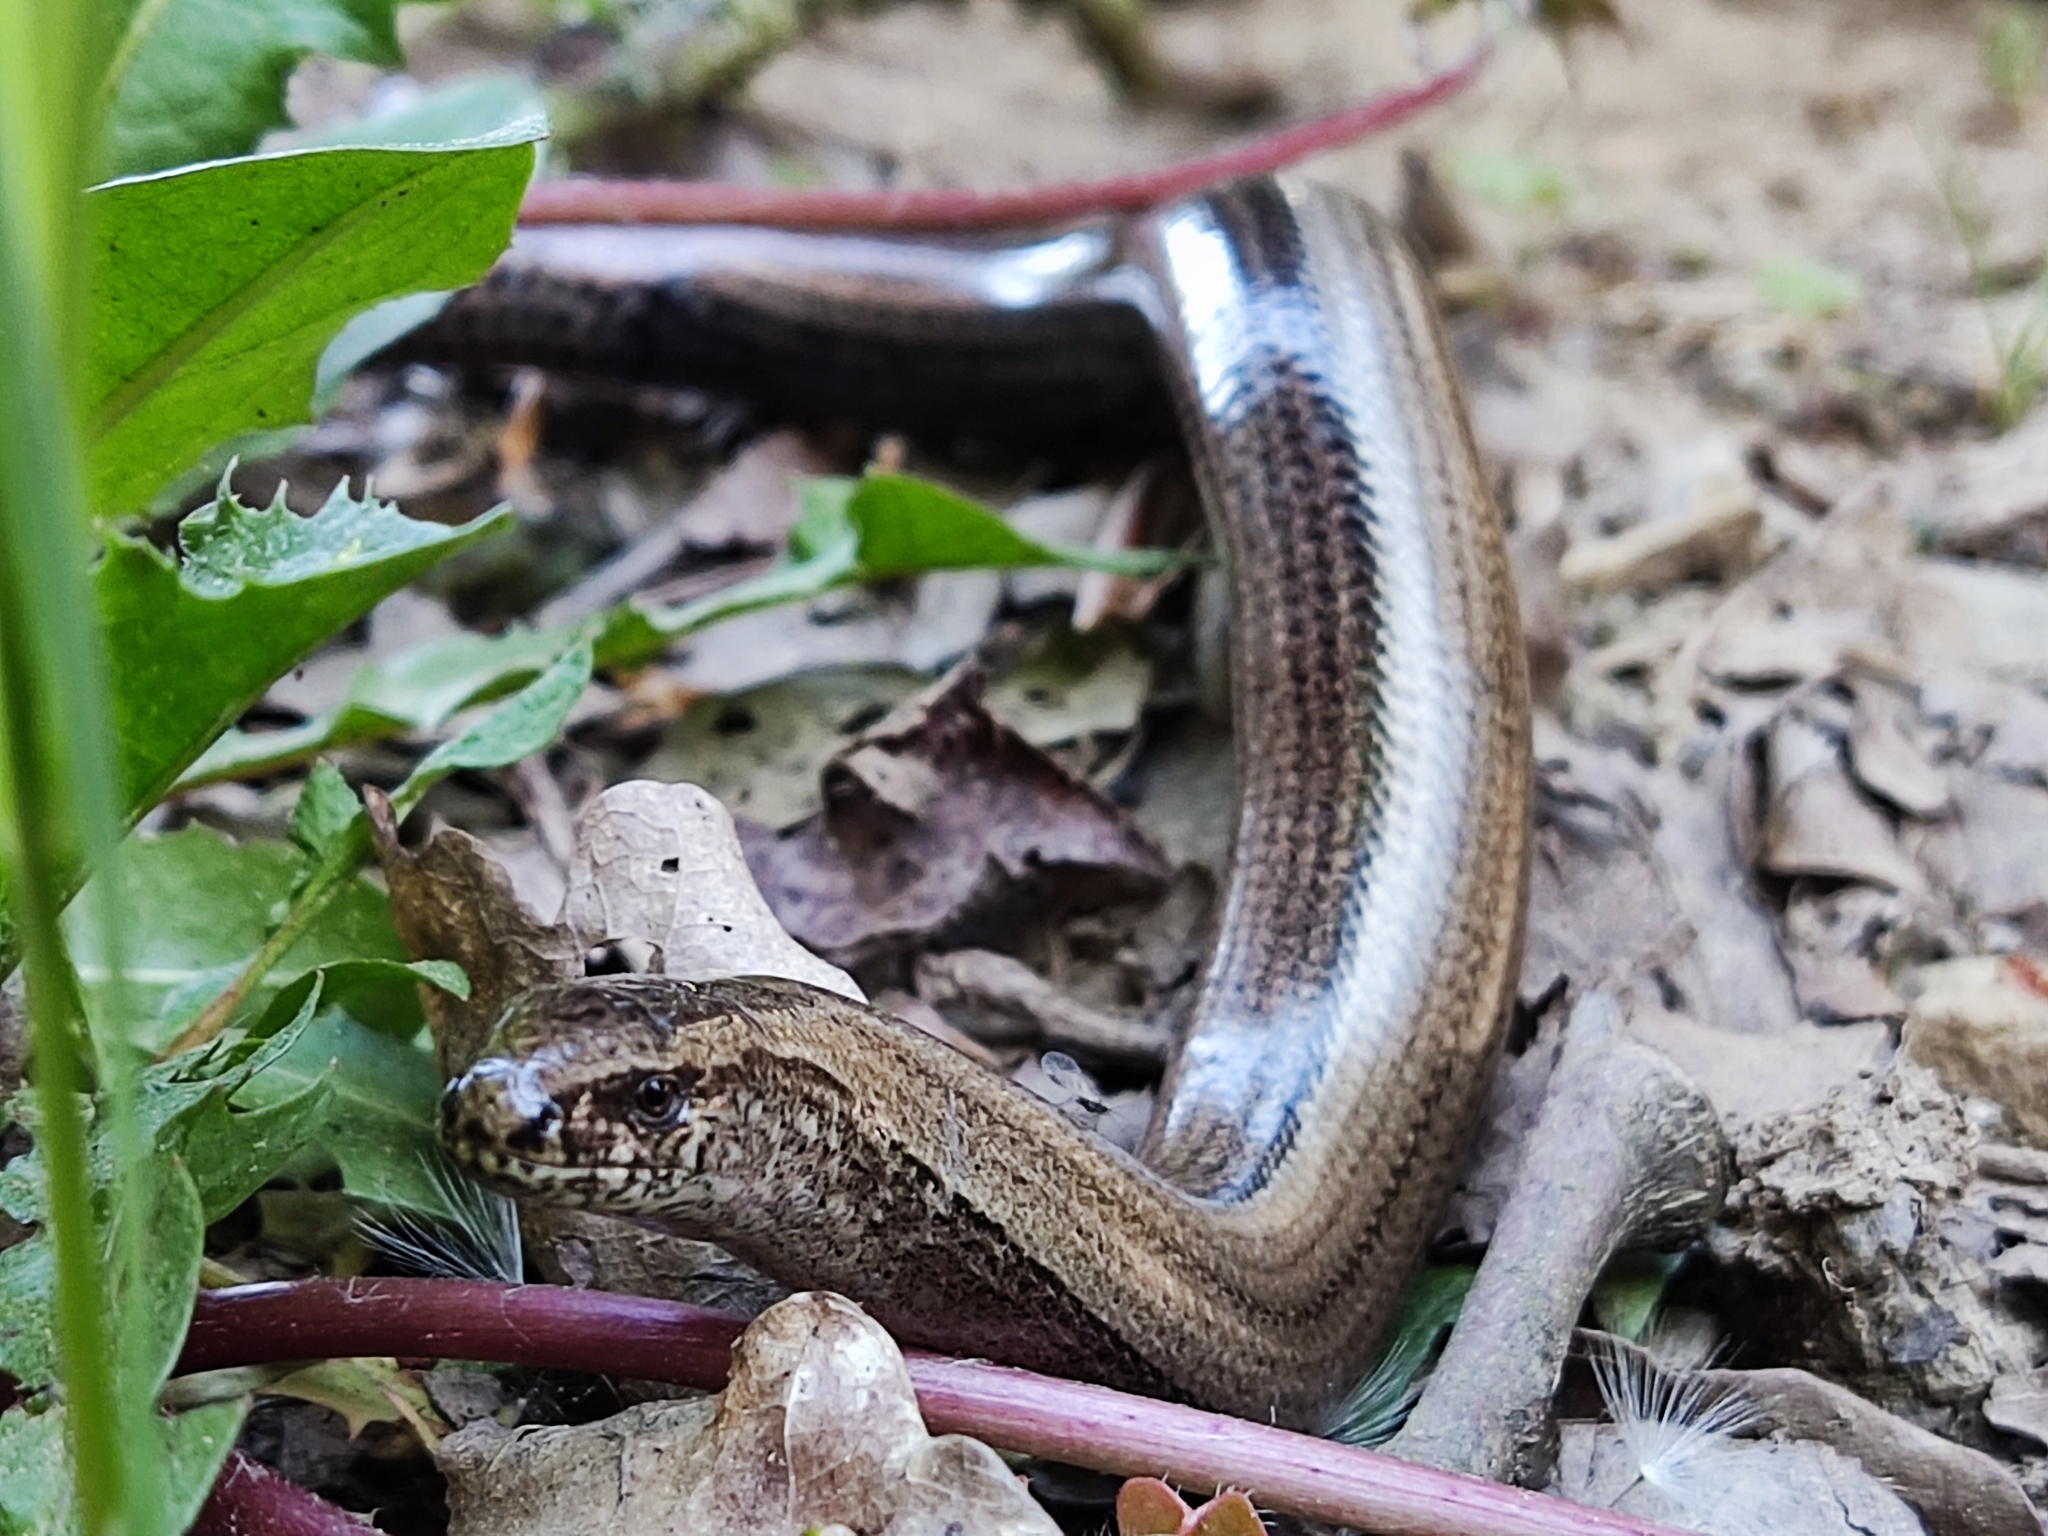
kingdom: Animalia
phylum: Chordata
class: Squamata
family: Anguidae
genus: Anguis
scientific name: Anguis fragilis
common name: Slow worm
